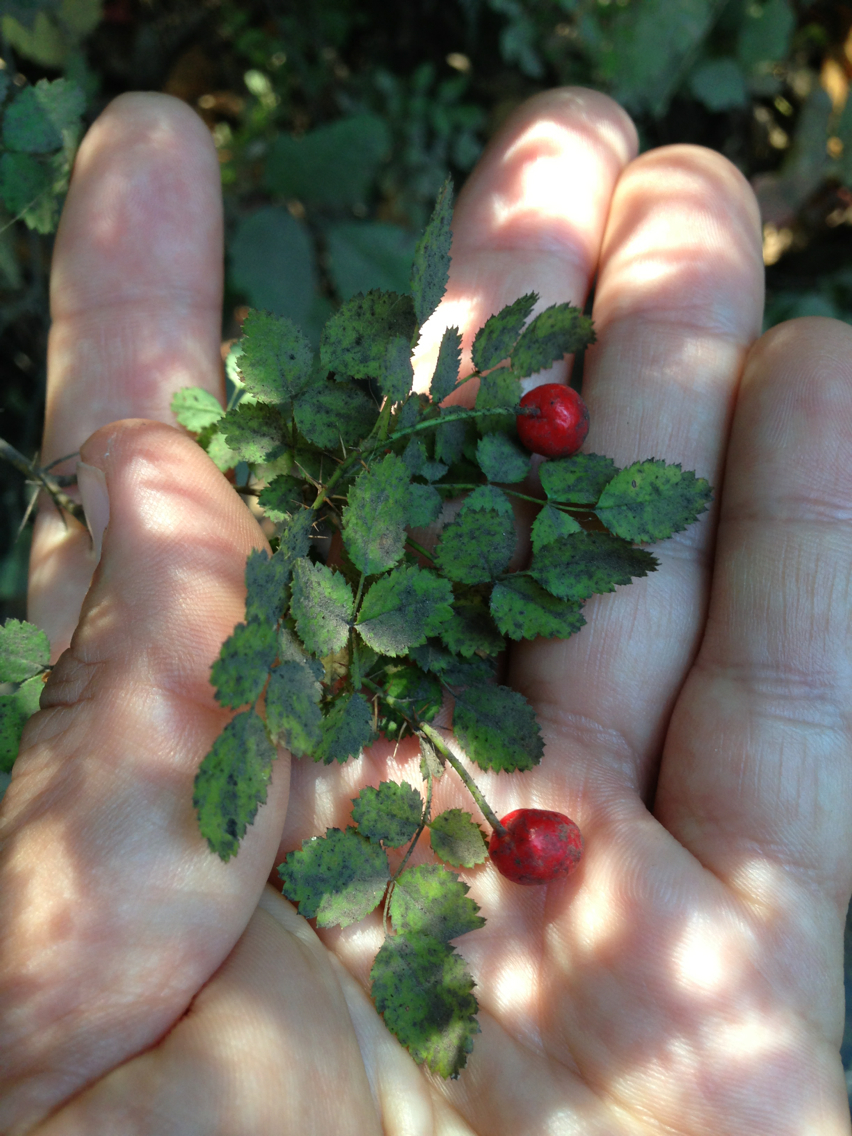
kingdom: Plantae
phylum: Tracheophyta
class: Magnoliopsida
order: Rosales
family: Rosaceae
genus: Rosa
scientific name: Rosa gymnocarpa
